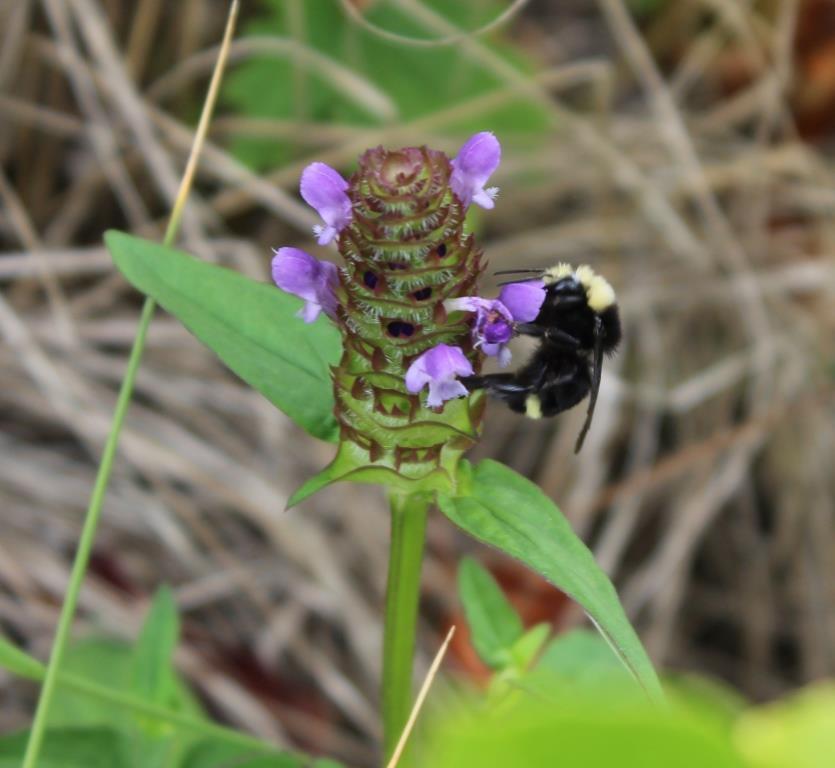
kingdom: Plantae
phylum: Tracheophyta
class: Magnoliopsida
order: Lamiales
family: Lamiaceae
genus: Prunella
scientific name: Prunella vulgaris
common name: Heal-all
